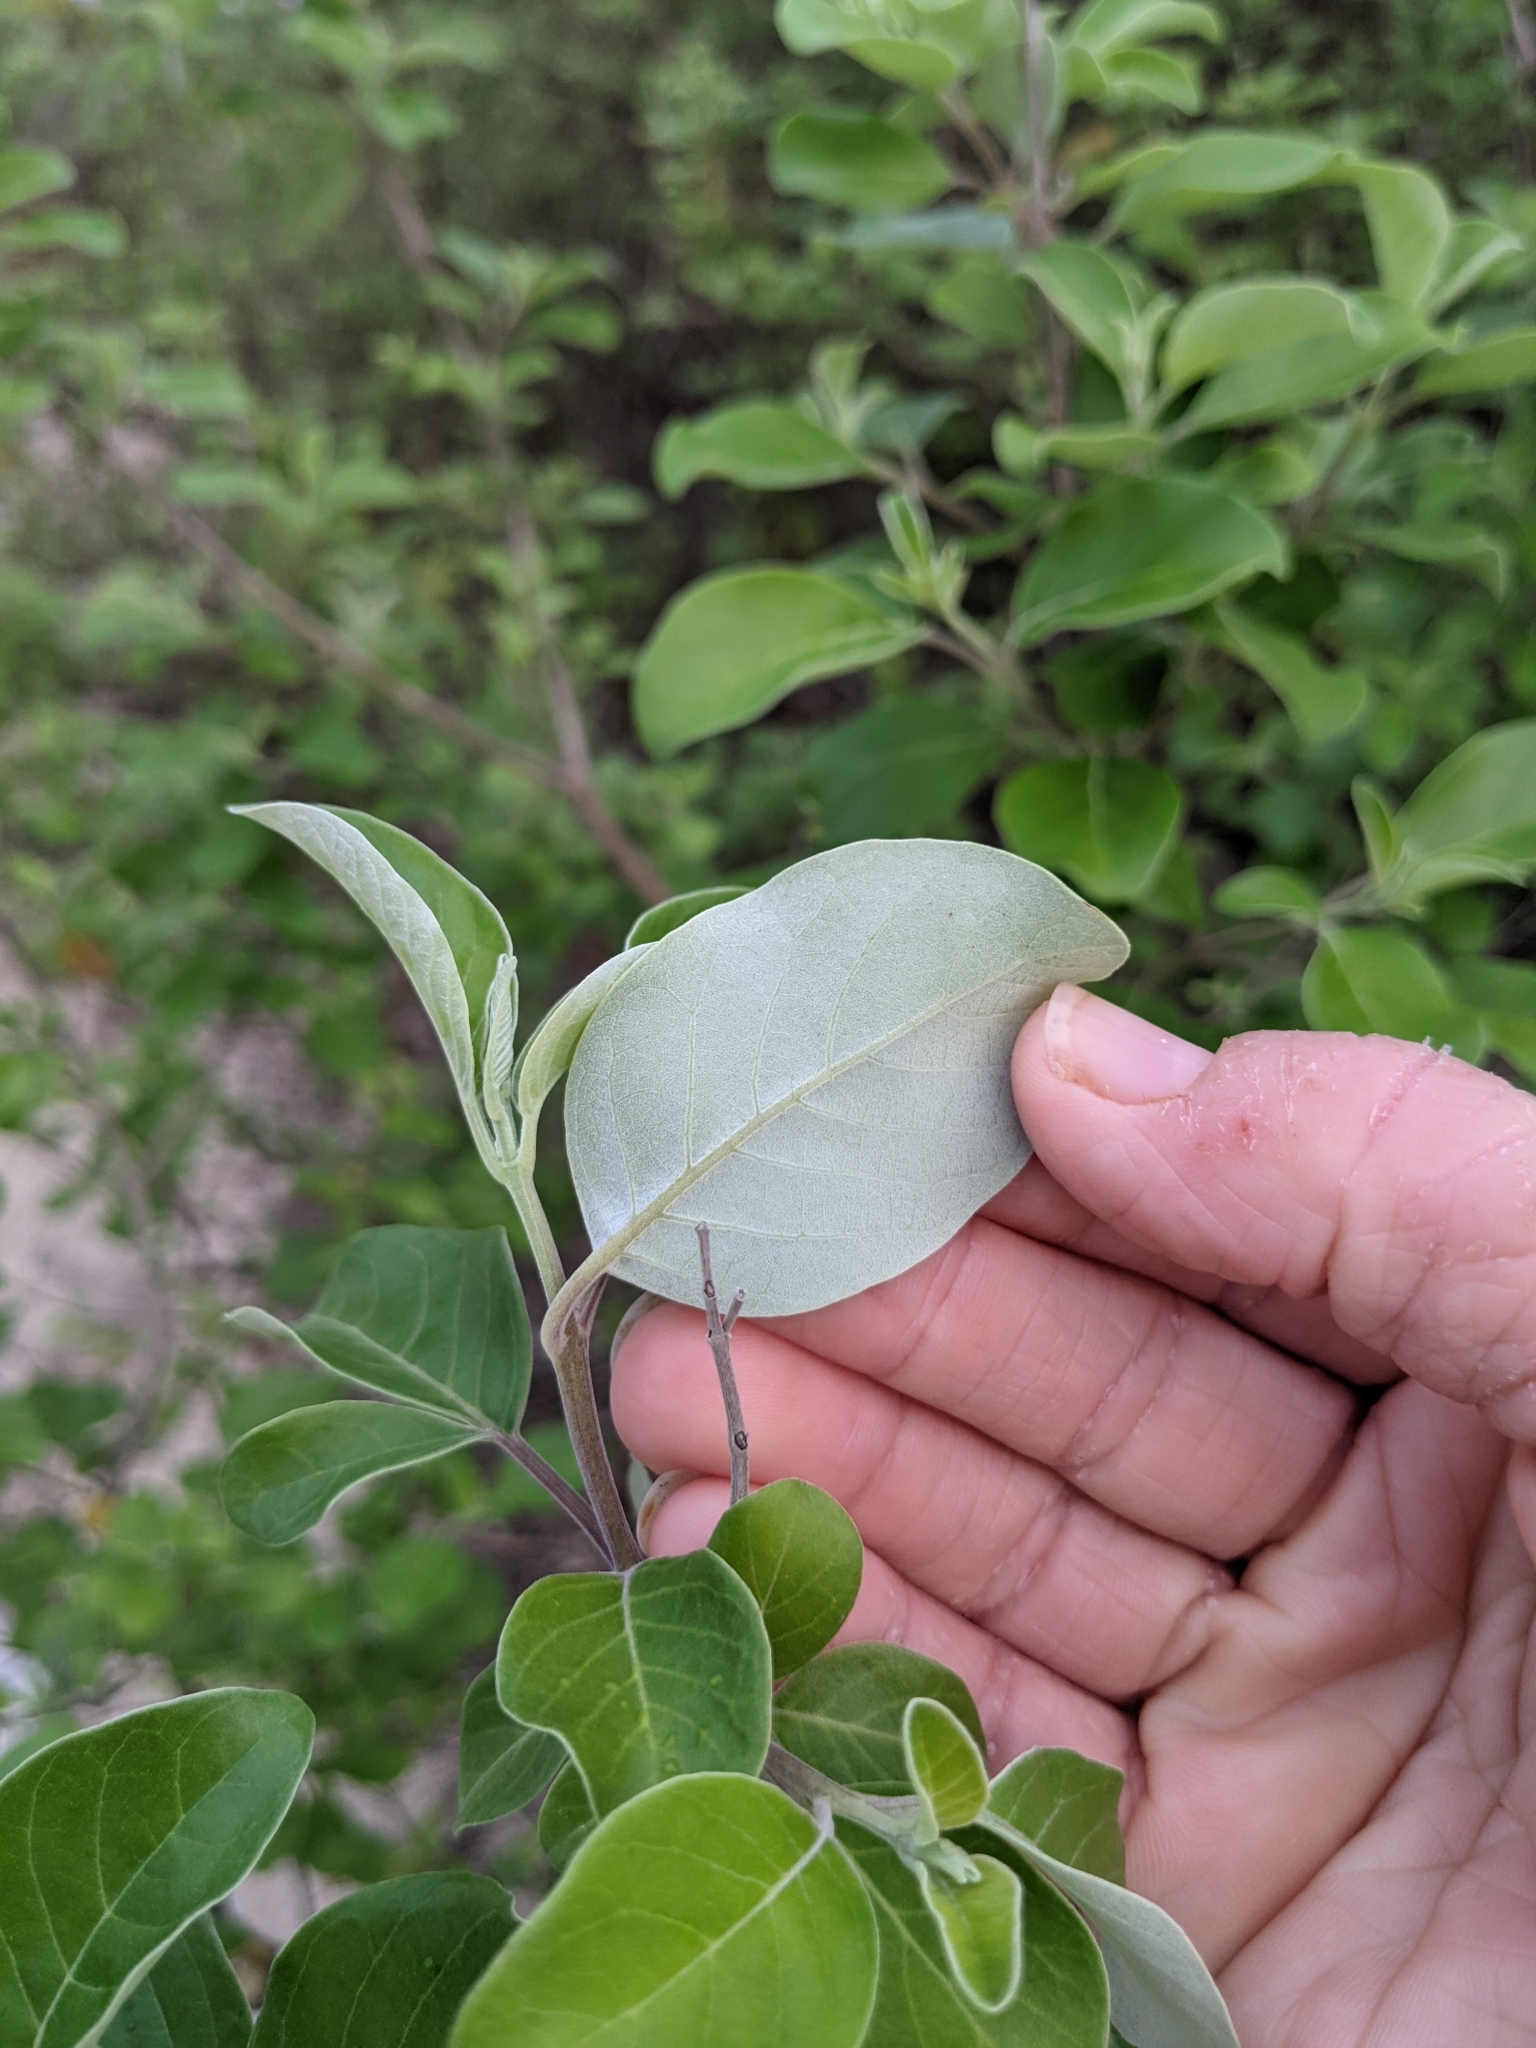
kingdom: Plantae
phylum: Tracheophyta
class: Magnoliopsida
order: Lamiales
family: Lamiaceae
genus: Vitex
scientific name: Vitex trifolia
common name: Simpleleaf chastetree
